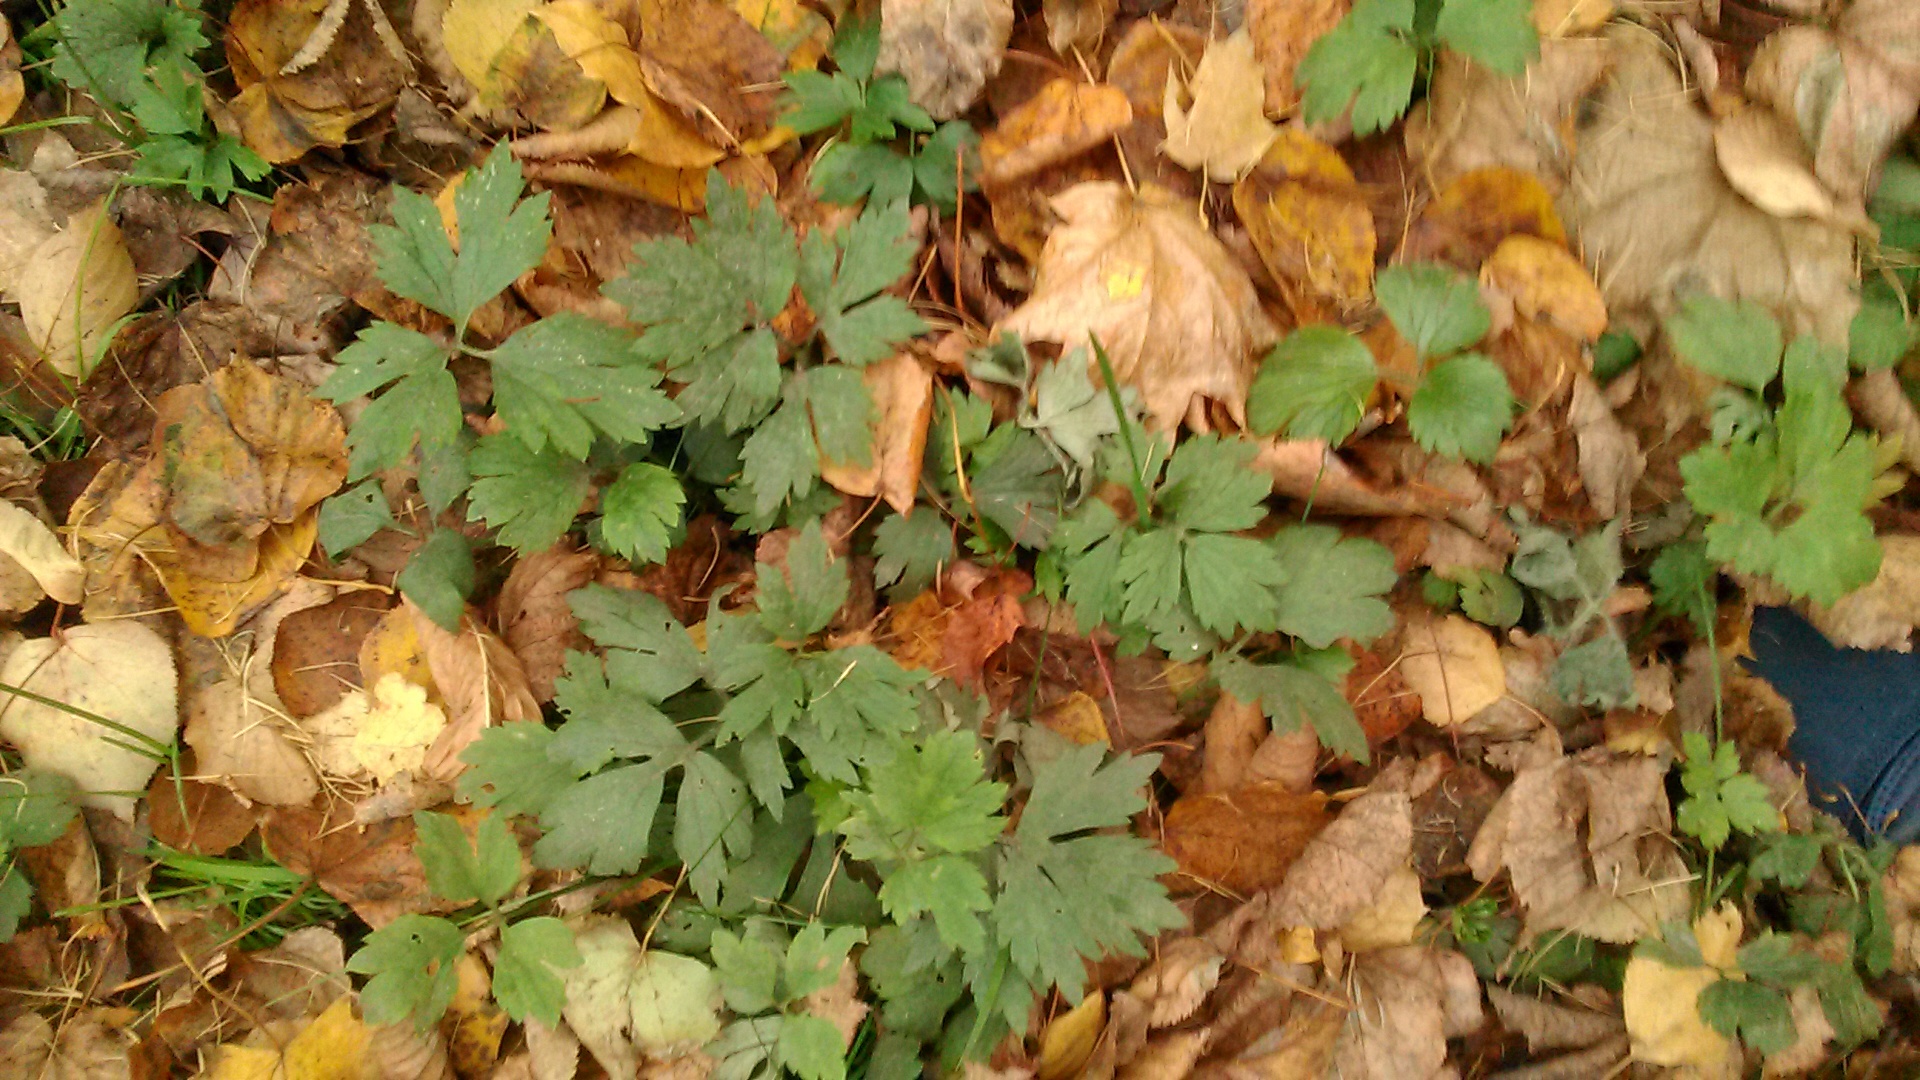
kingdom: Plantae
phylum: Tracheophyta
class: Magnoliopsida
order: Ranunculales
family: Ranunculaceae
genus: Ranunculus
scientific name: Ranunculus repens
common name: Creeping buttercup
